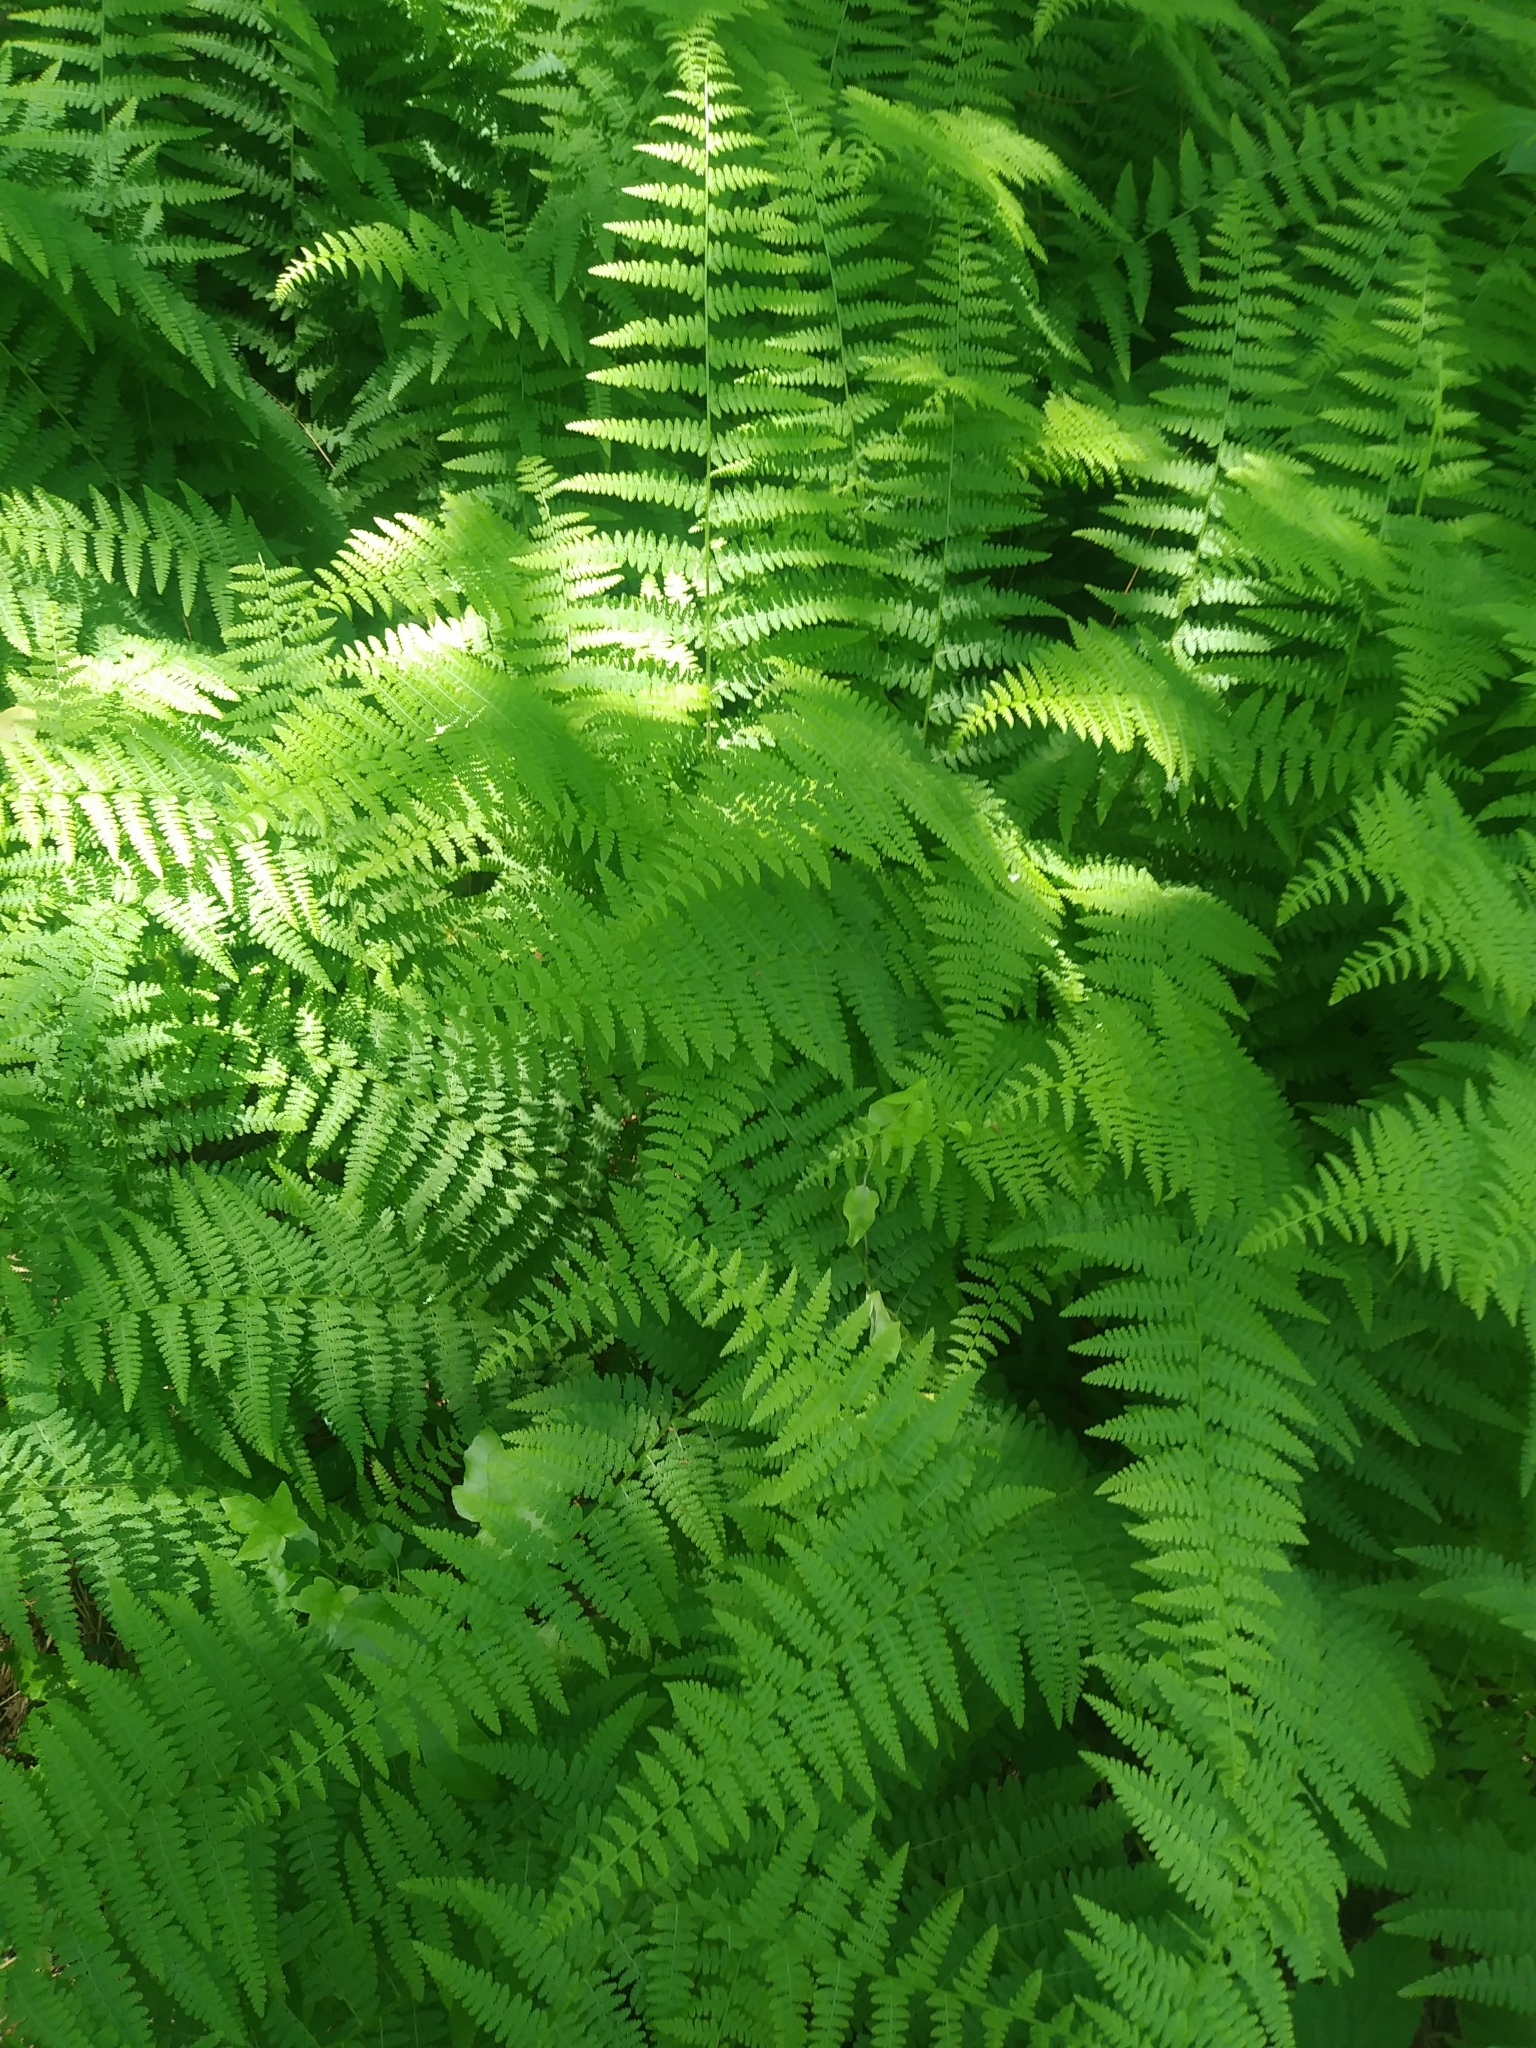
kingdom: Plantae
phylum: Tracheophyta
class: Polypodiopsida
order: Polypodiales
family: Dennstaedtiaceae
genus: Sitobolium
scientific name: Sitobolium punctilobum
